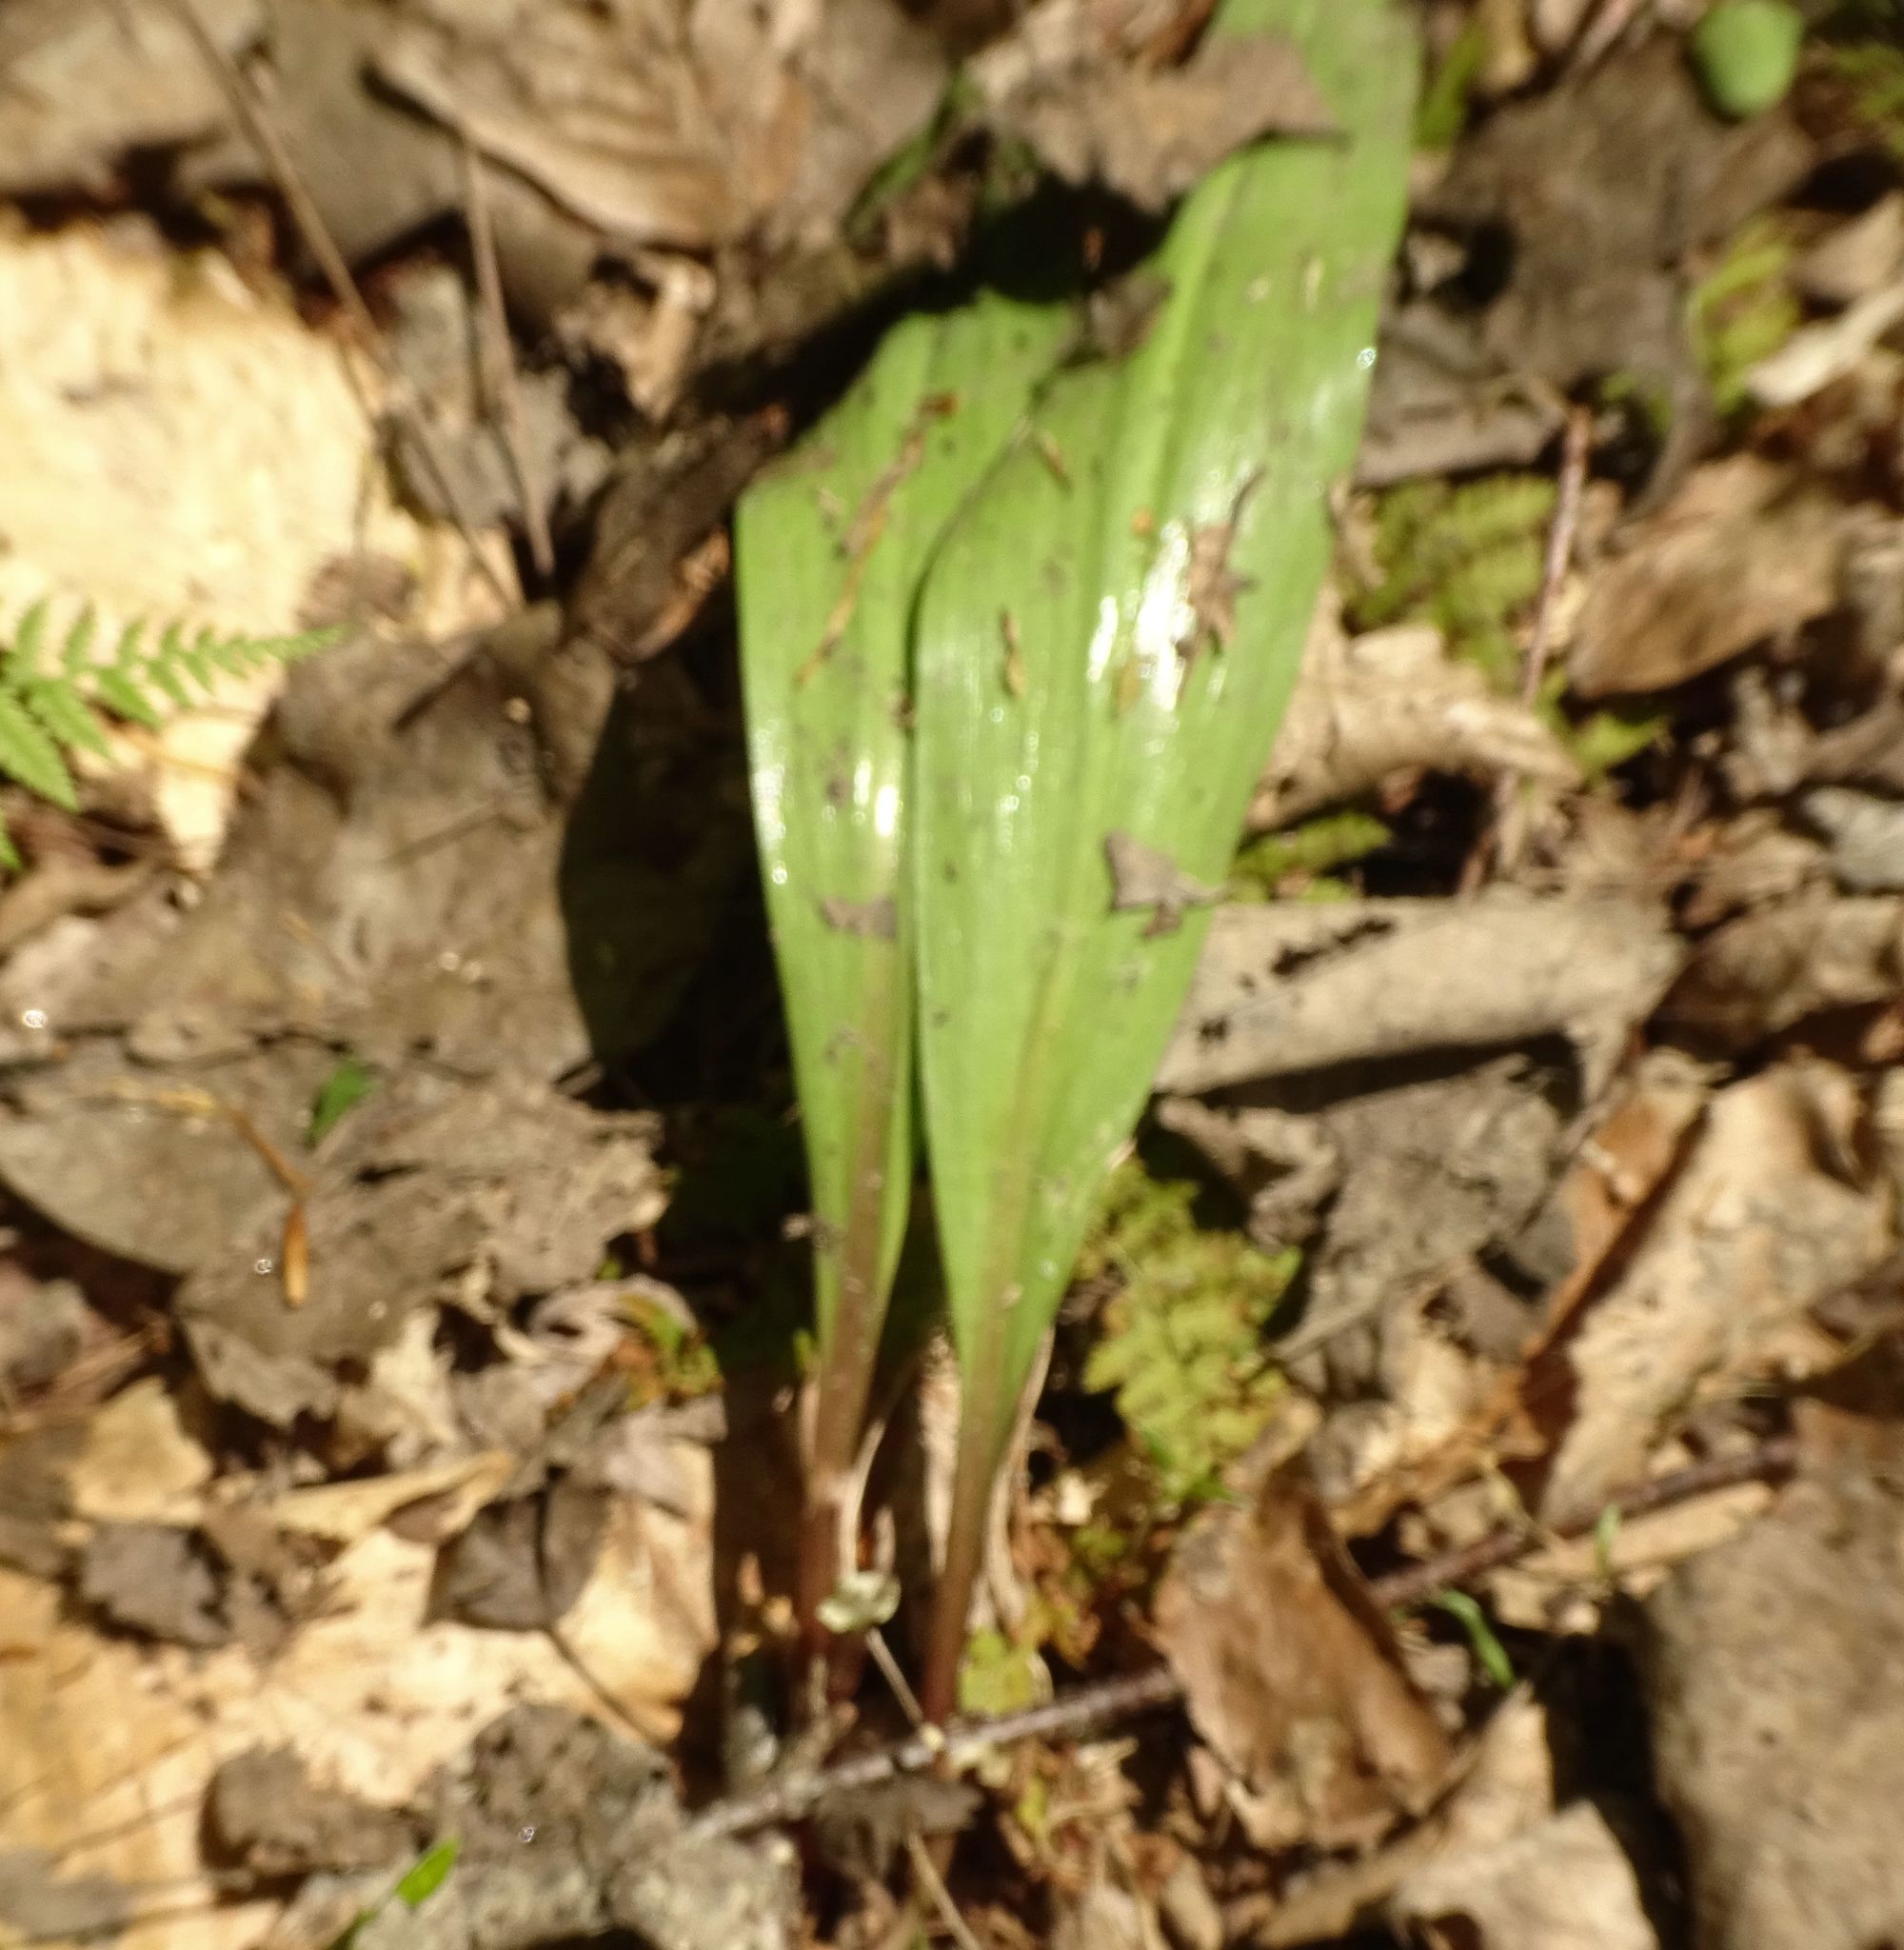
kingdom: Plantae
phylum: Tracheophyta
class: Liliopsida
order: Asparagales
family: Amaryllidaceae
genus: Allium
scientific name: Allium tricoccum
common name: Ramp
